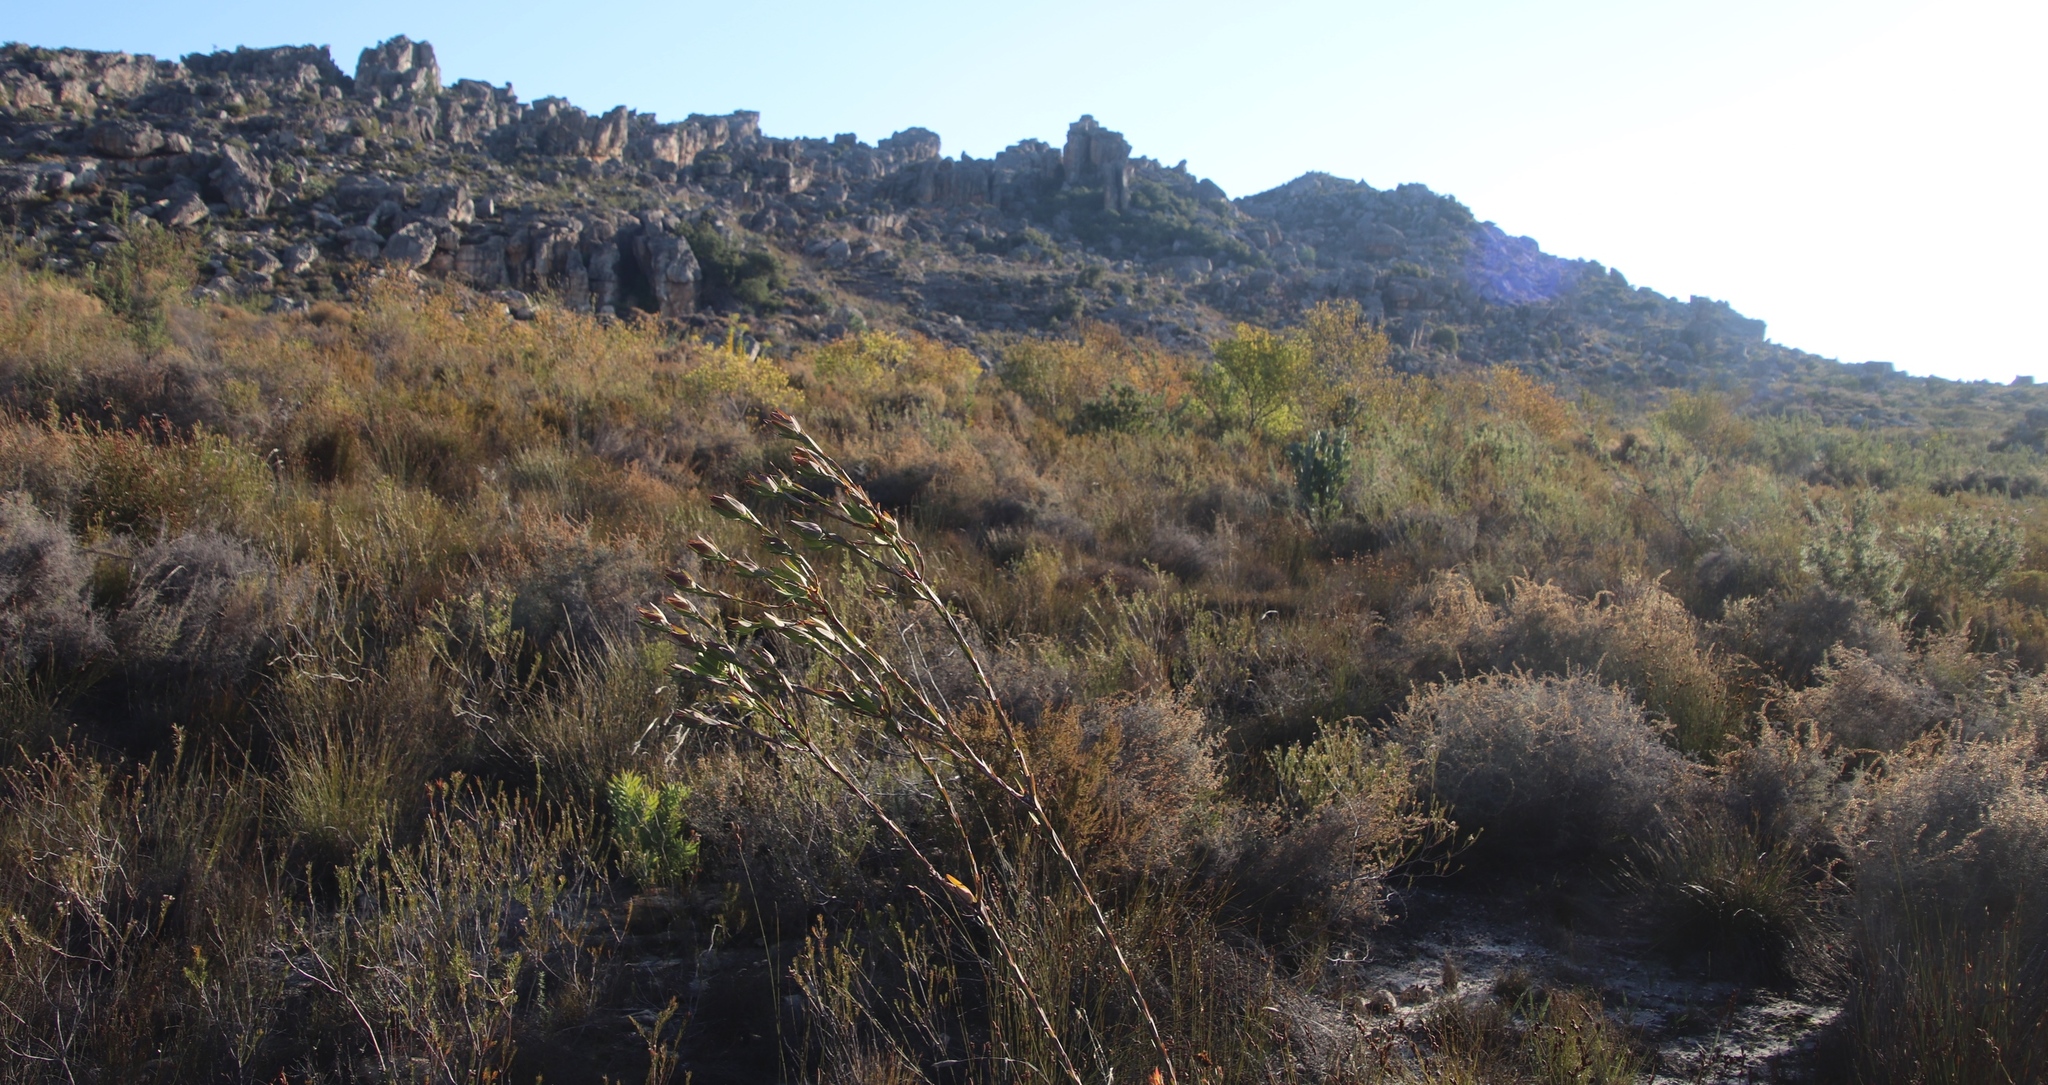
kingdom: Plantae
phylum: Tracheophyta
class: Magnoliopsida
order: Proteales
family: Proteaceae
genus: Leucadendron
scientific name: Leucadendron diemontianum
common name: Visgat conebush
